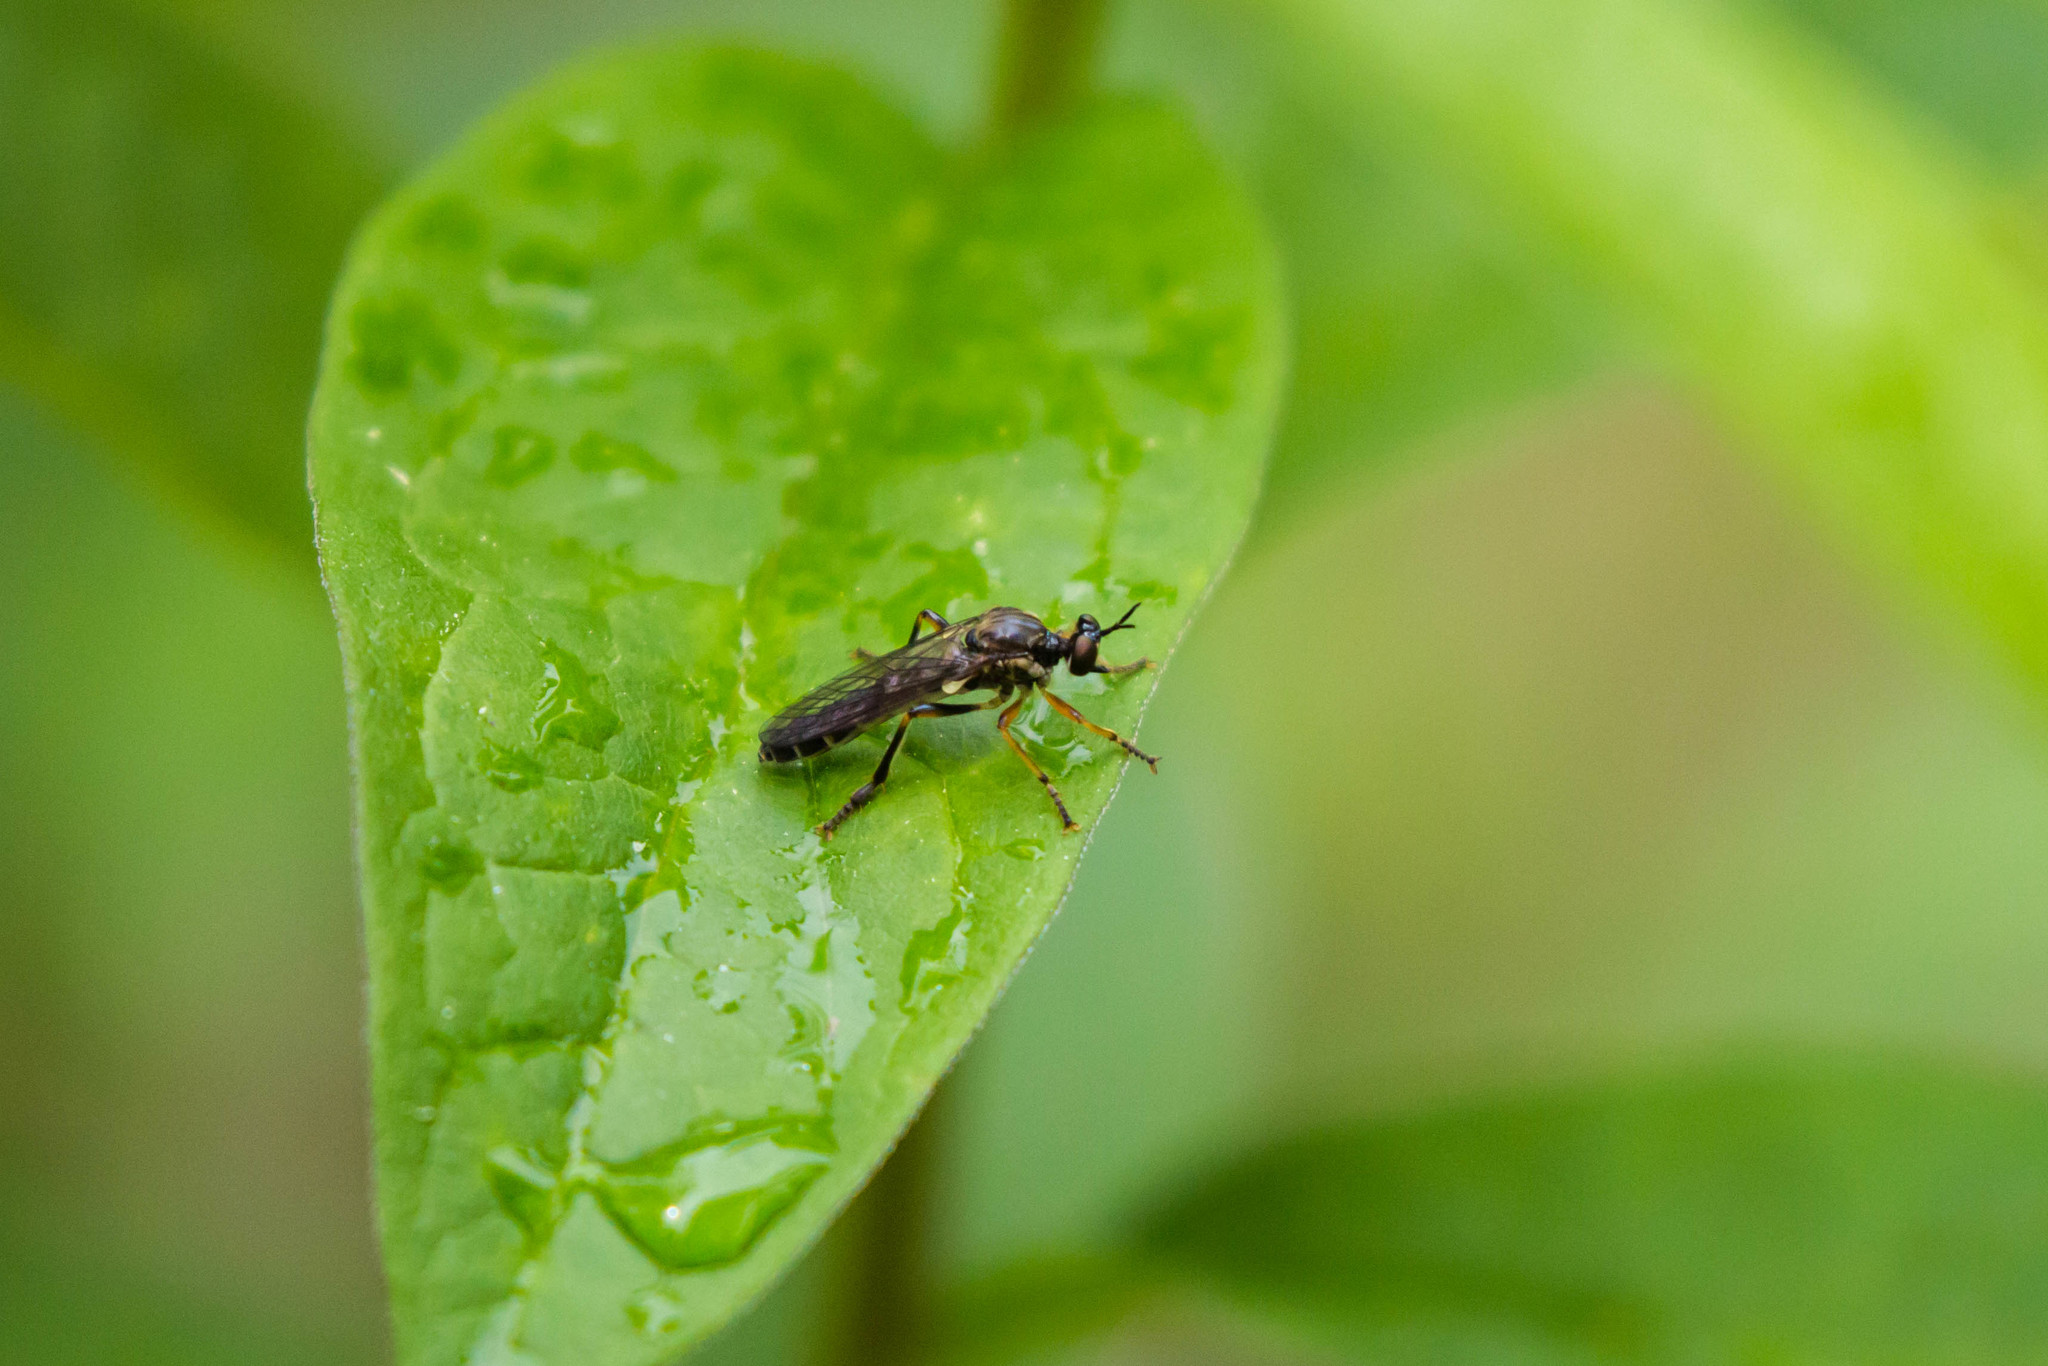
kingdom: Animalia
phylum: Arthropoda
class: Insecta
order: Diptera
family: Asilidae
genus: Dioctria
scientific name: Dioctria hyalipennis
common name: Stripe-legged robberfly
